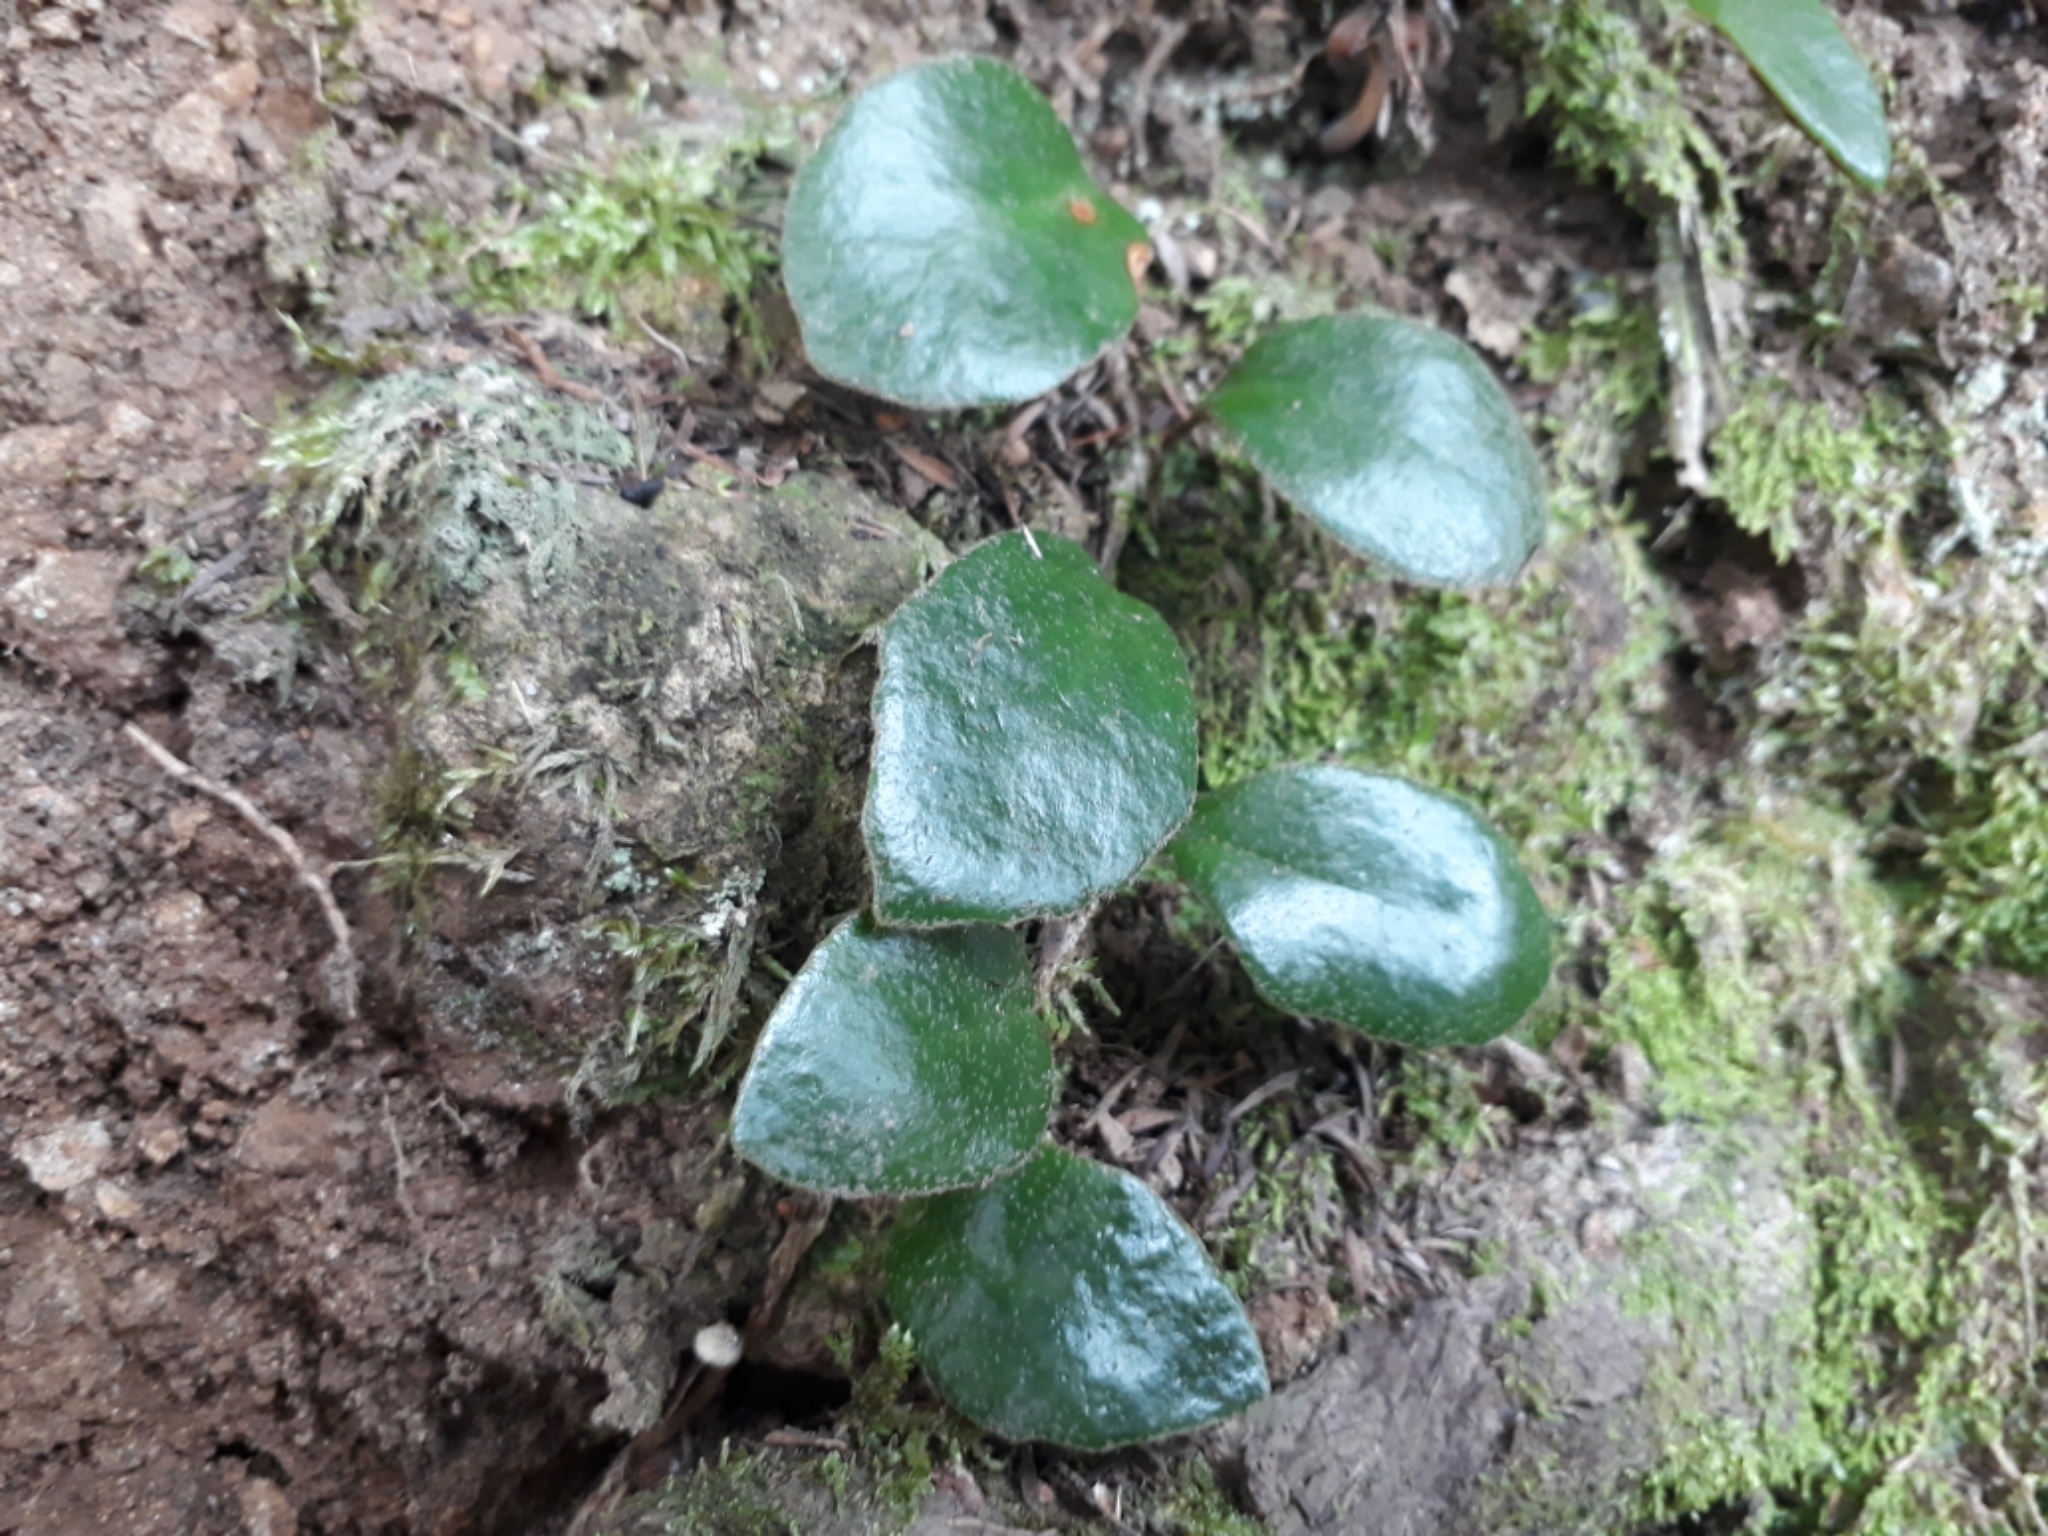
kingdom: Plantae
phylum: Tracheophyta
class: Polypodiopsida
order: Polypodiales
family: Polypodiaceae
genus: Pyrrosia
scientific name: Pyrrosia eleagnifolia
